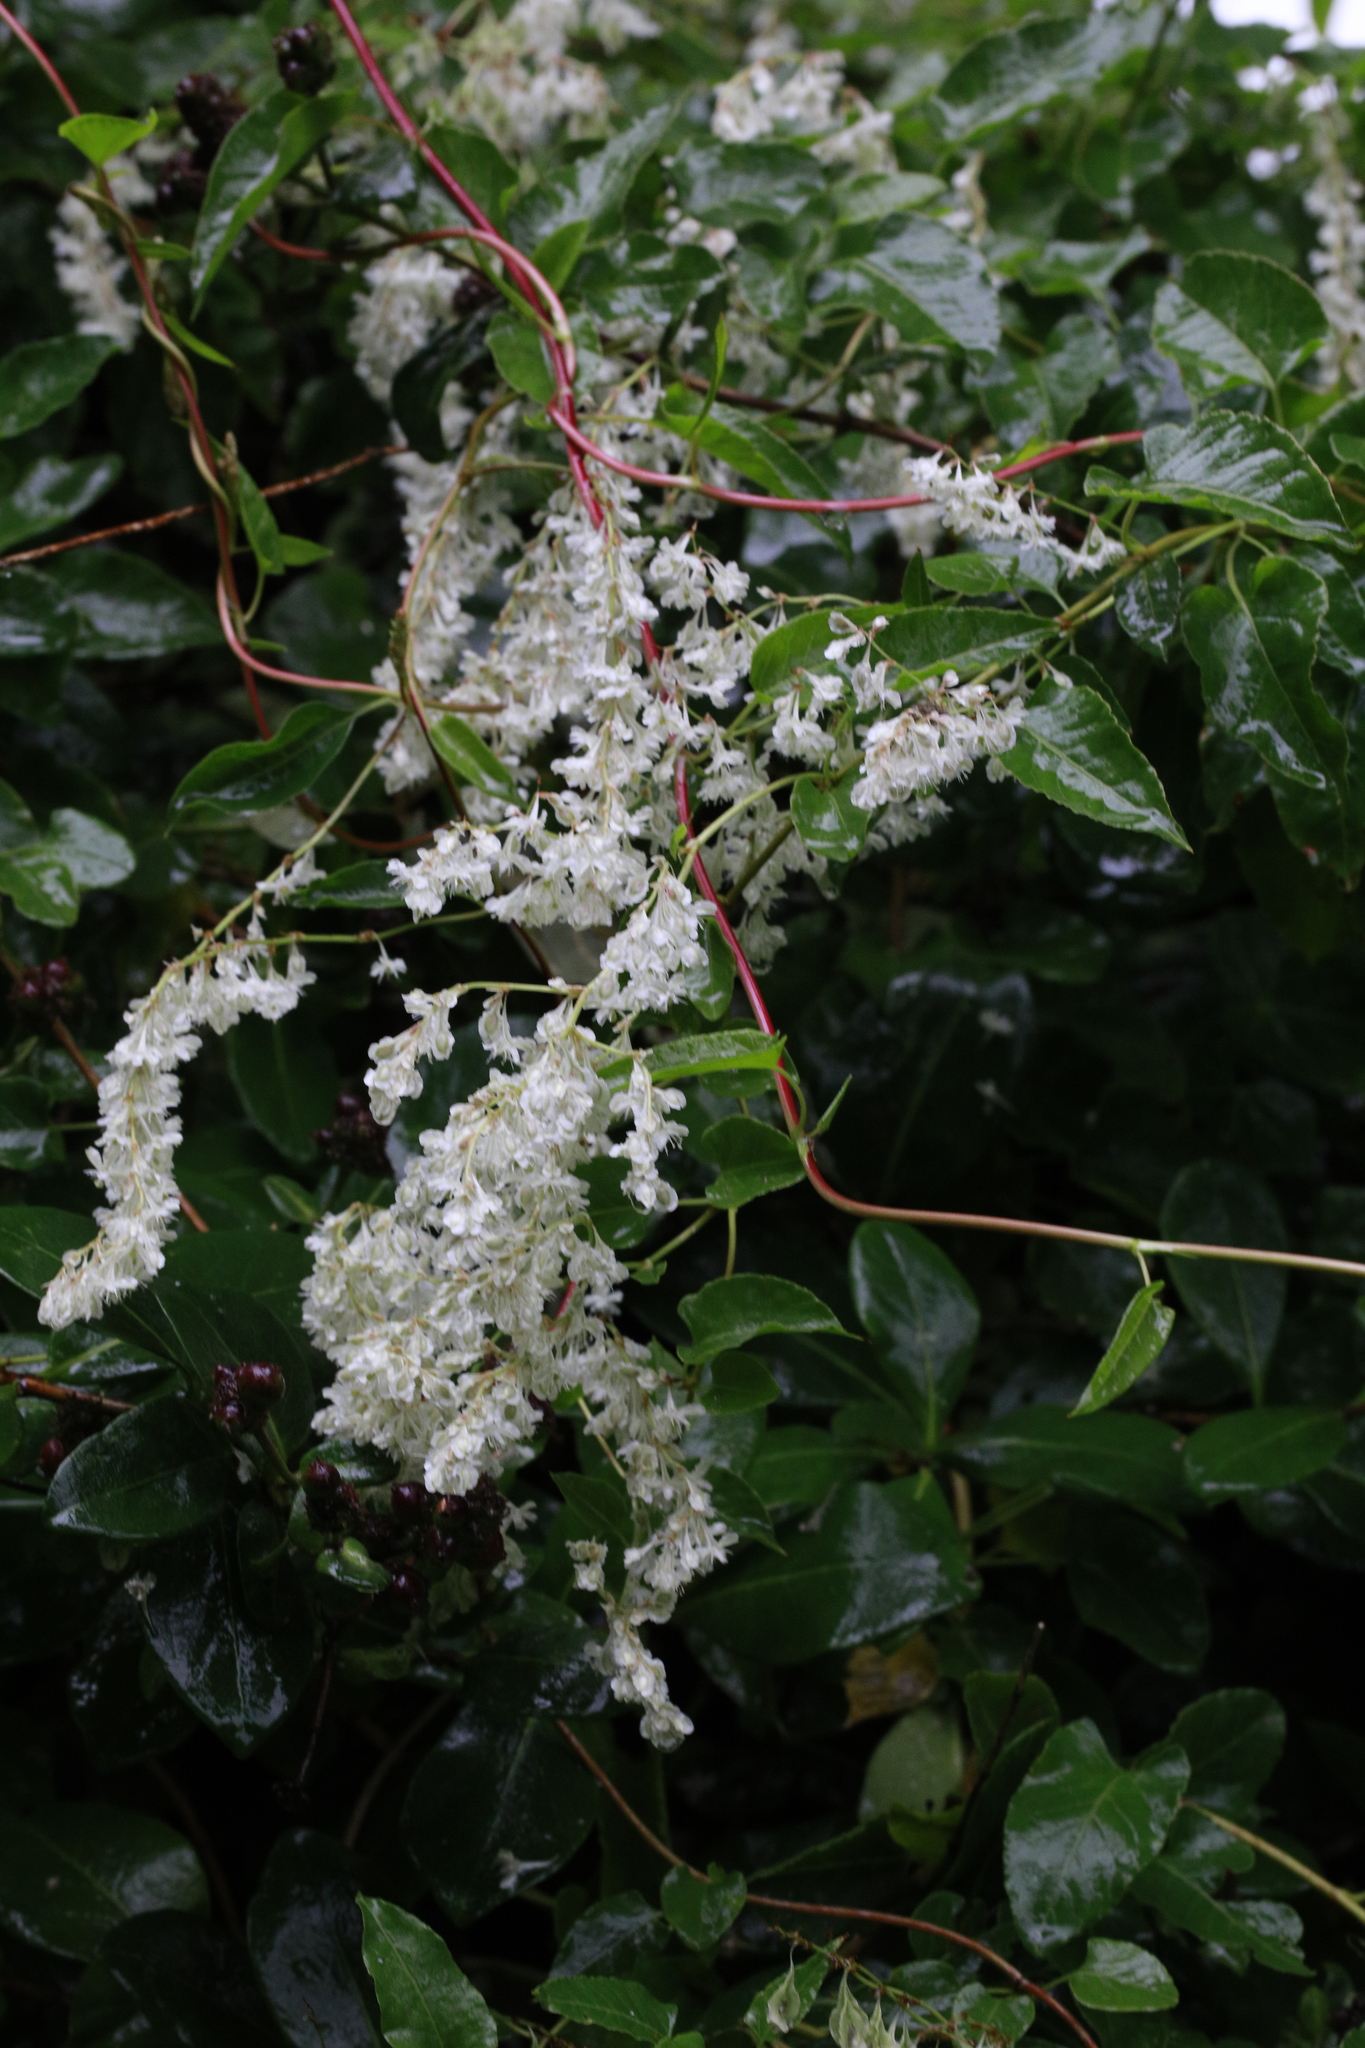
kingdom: Plantae
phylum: Tracheophyta
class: Magnoliopsida
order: Caryophyllales
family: Polygonaceae
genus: Fallopia
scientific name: Fallopia baldschuanica
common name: Russian-vine
